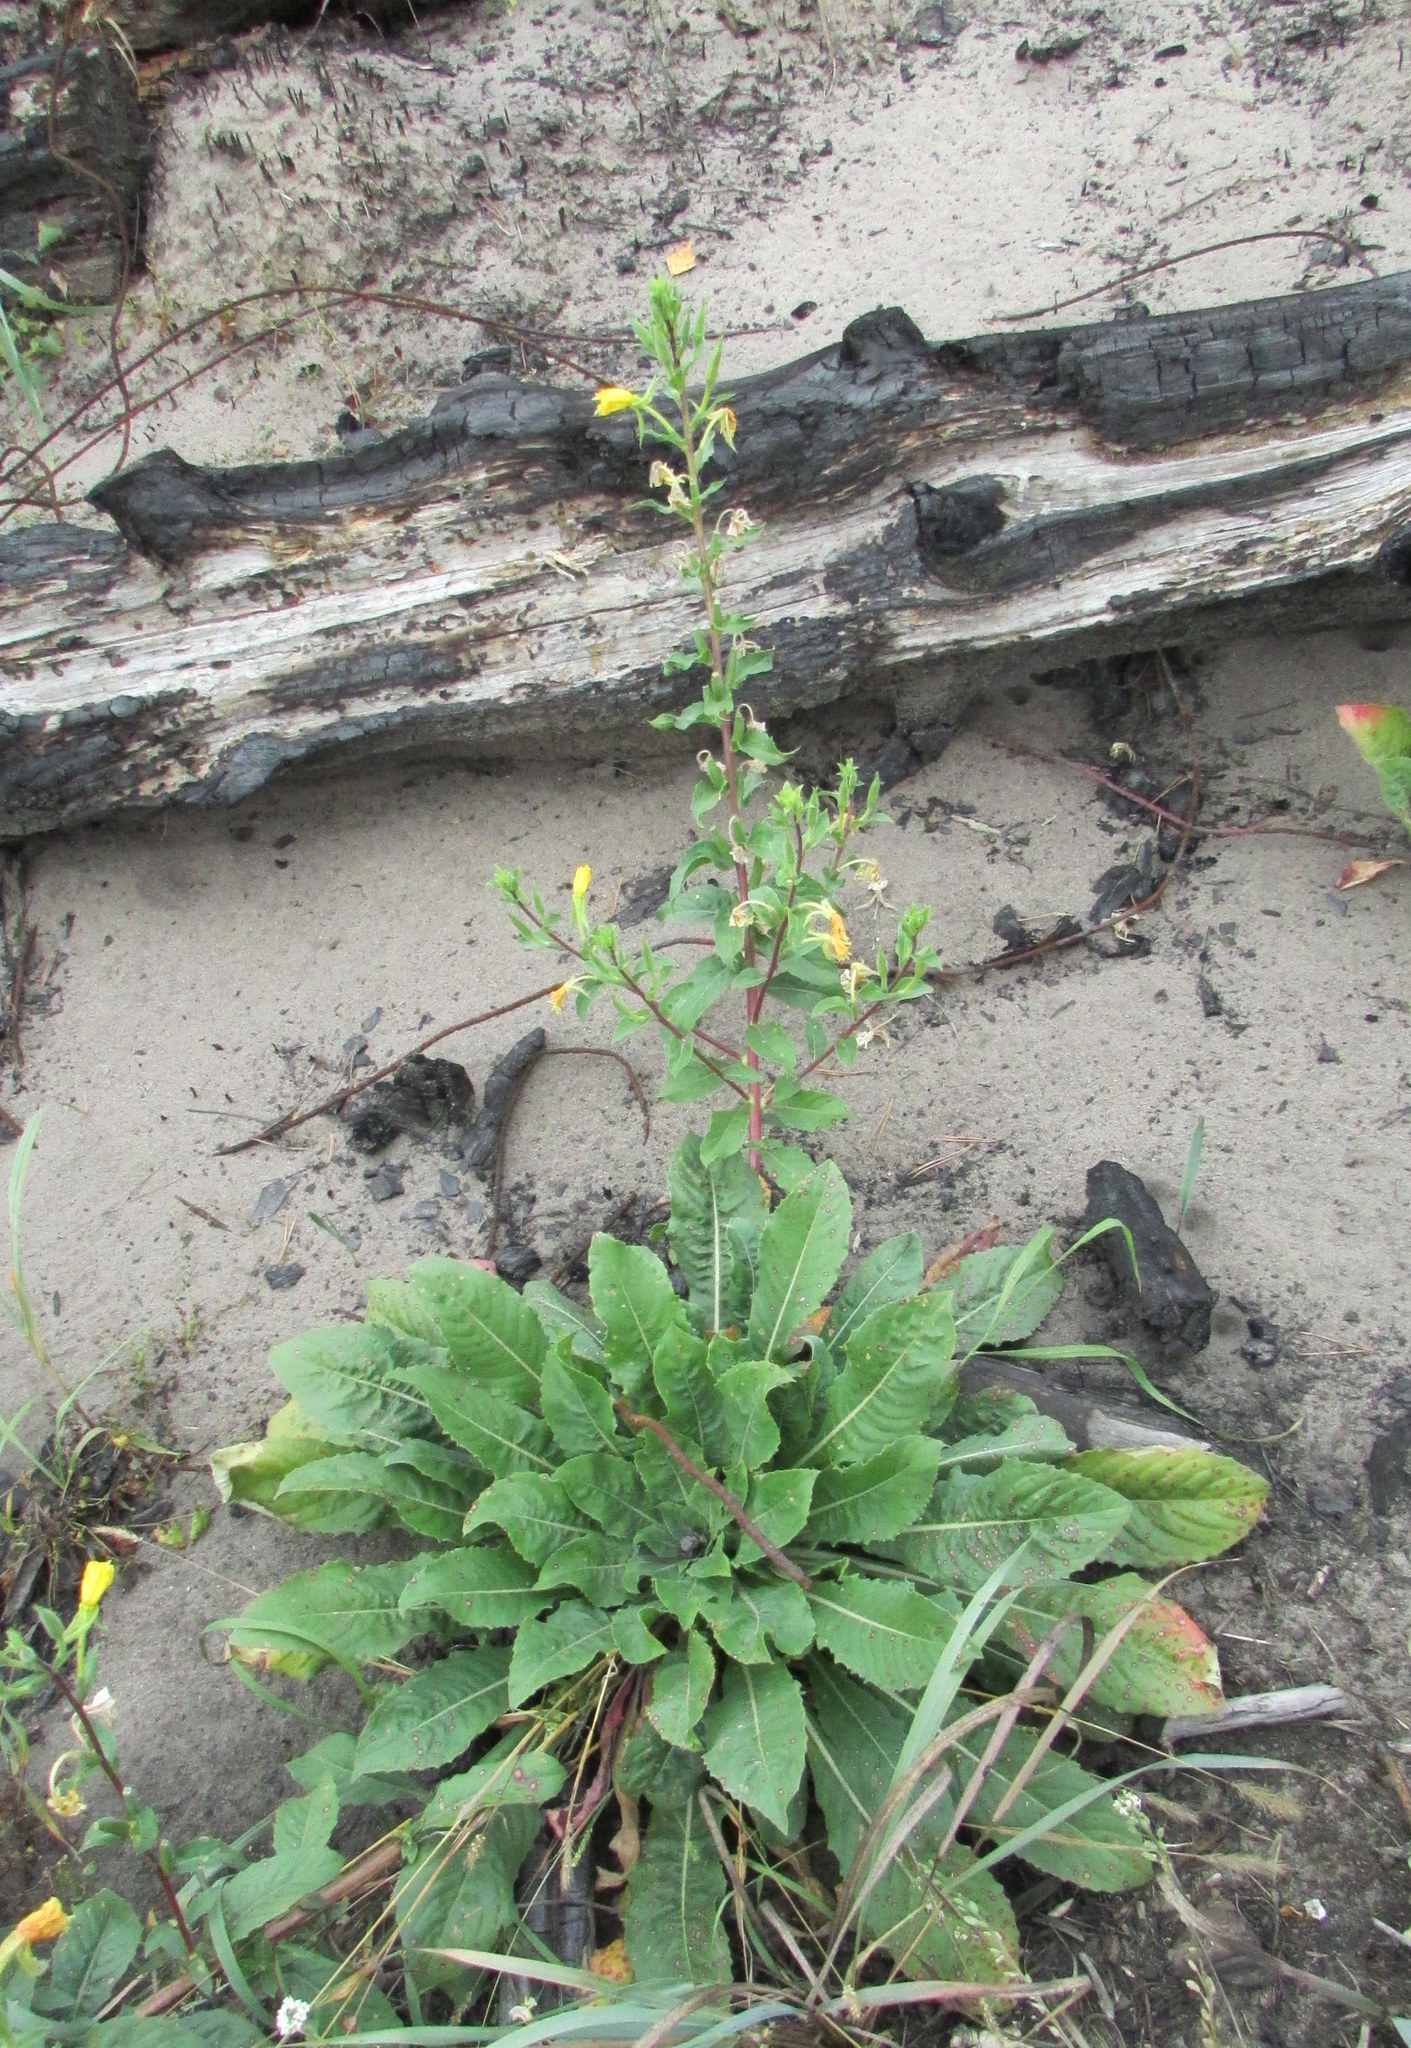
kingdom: Plantae
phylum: Tracheophyta
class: Magnoliopsida
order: Myrtales
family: Onagraceae
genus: Oenothera
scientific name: Oenothera rubricaulis
